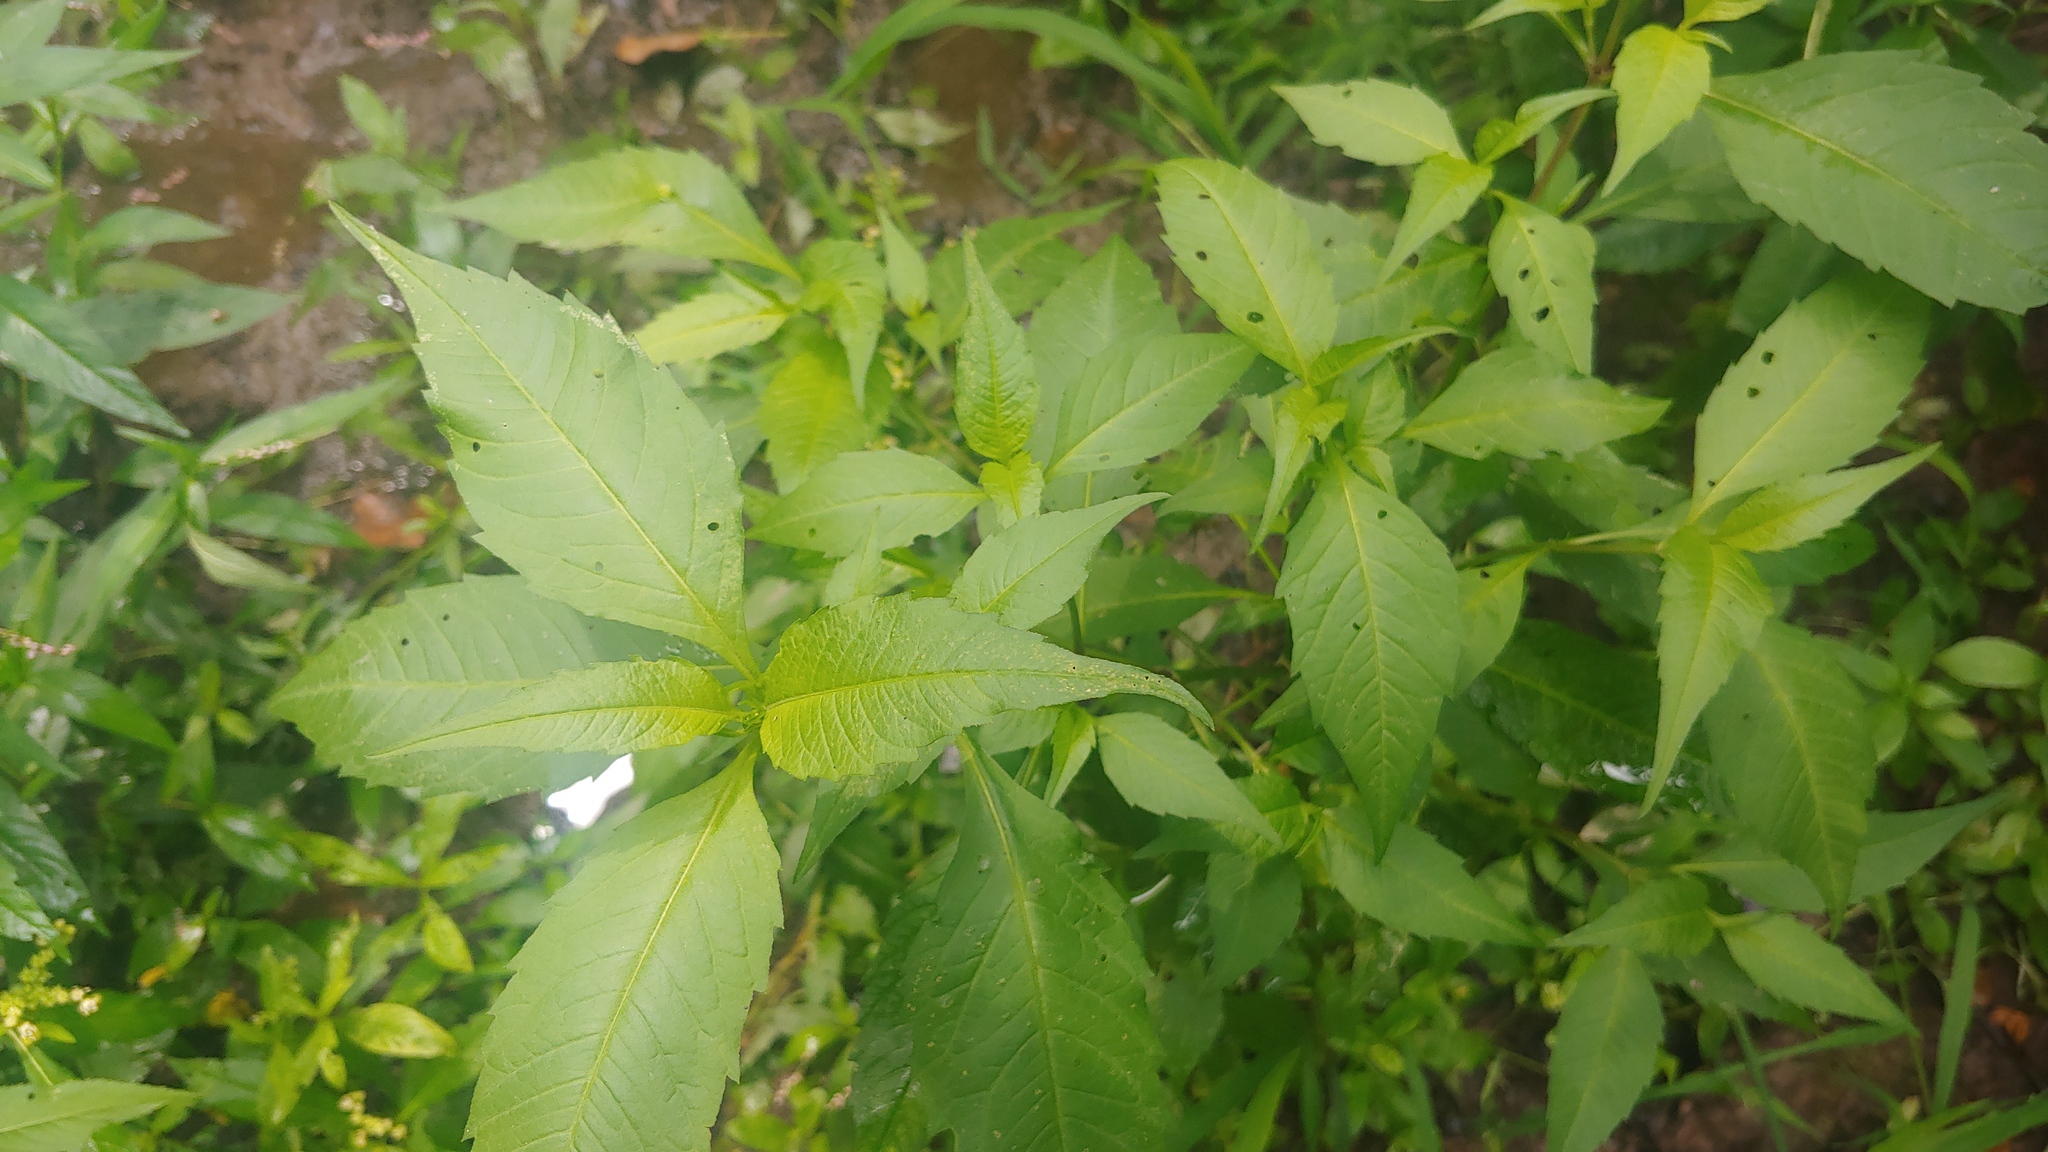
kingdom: Plantae
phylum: Tracheophyta
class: Magnoliopsida
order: Asterales
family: Asteraceae
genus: Bidens
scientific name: Bidens connata
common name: London bur-marigold
